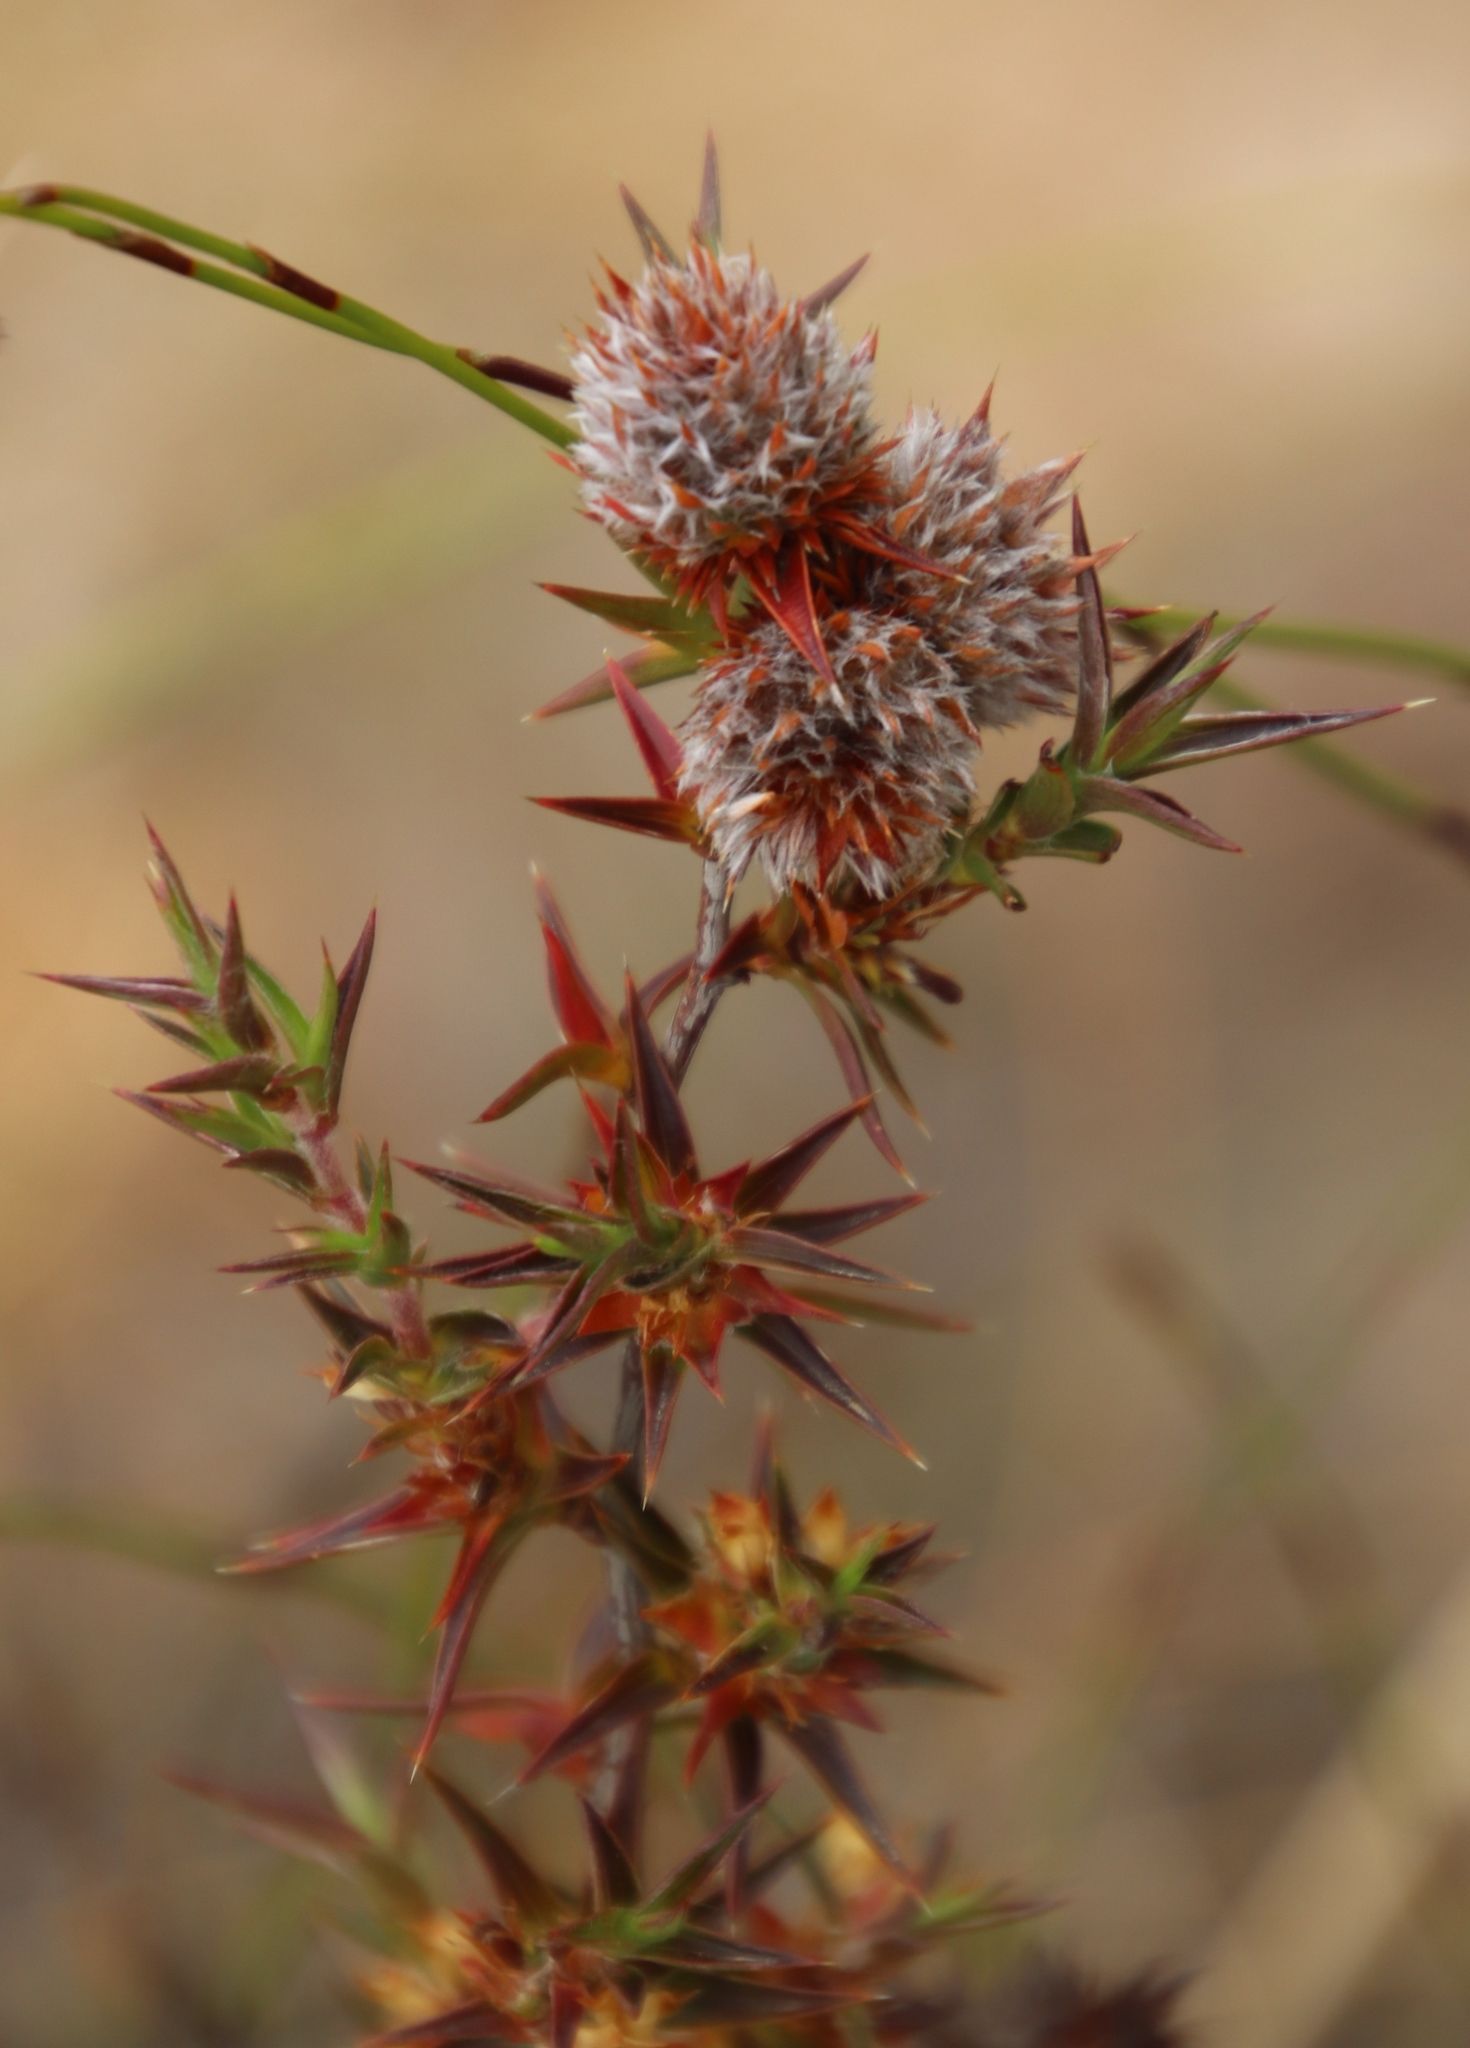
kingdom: Plantae
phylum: Tracheophyta
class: Magnoliopsida
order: Rosales
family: Rosaceae
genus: Cliffortia
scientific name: Cliffortia ruscifolia
